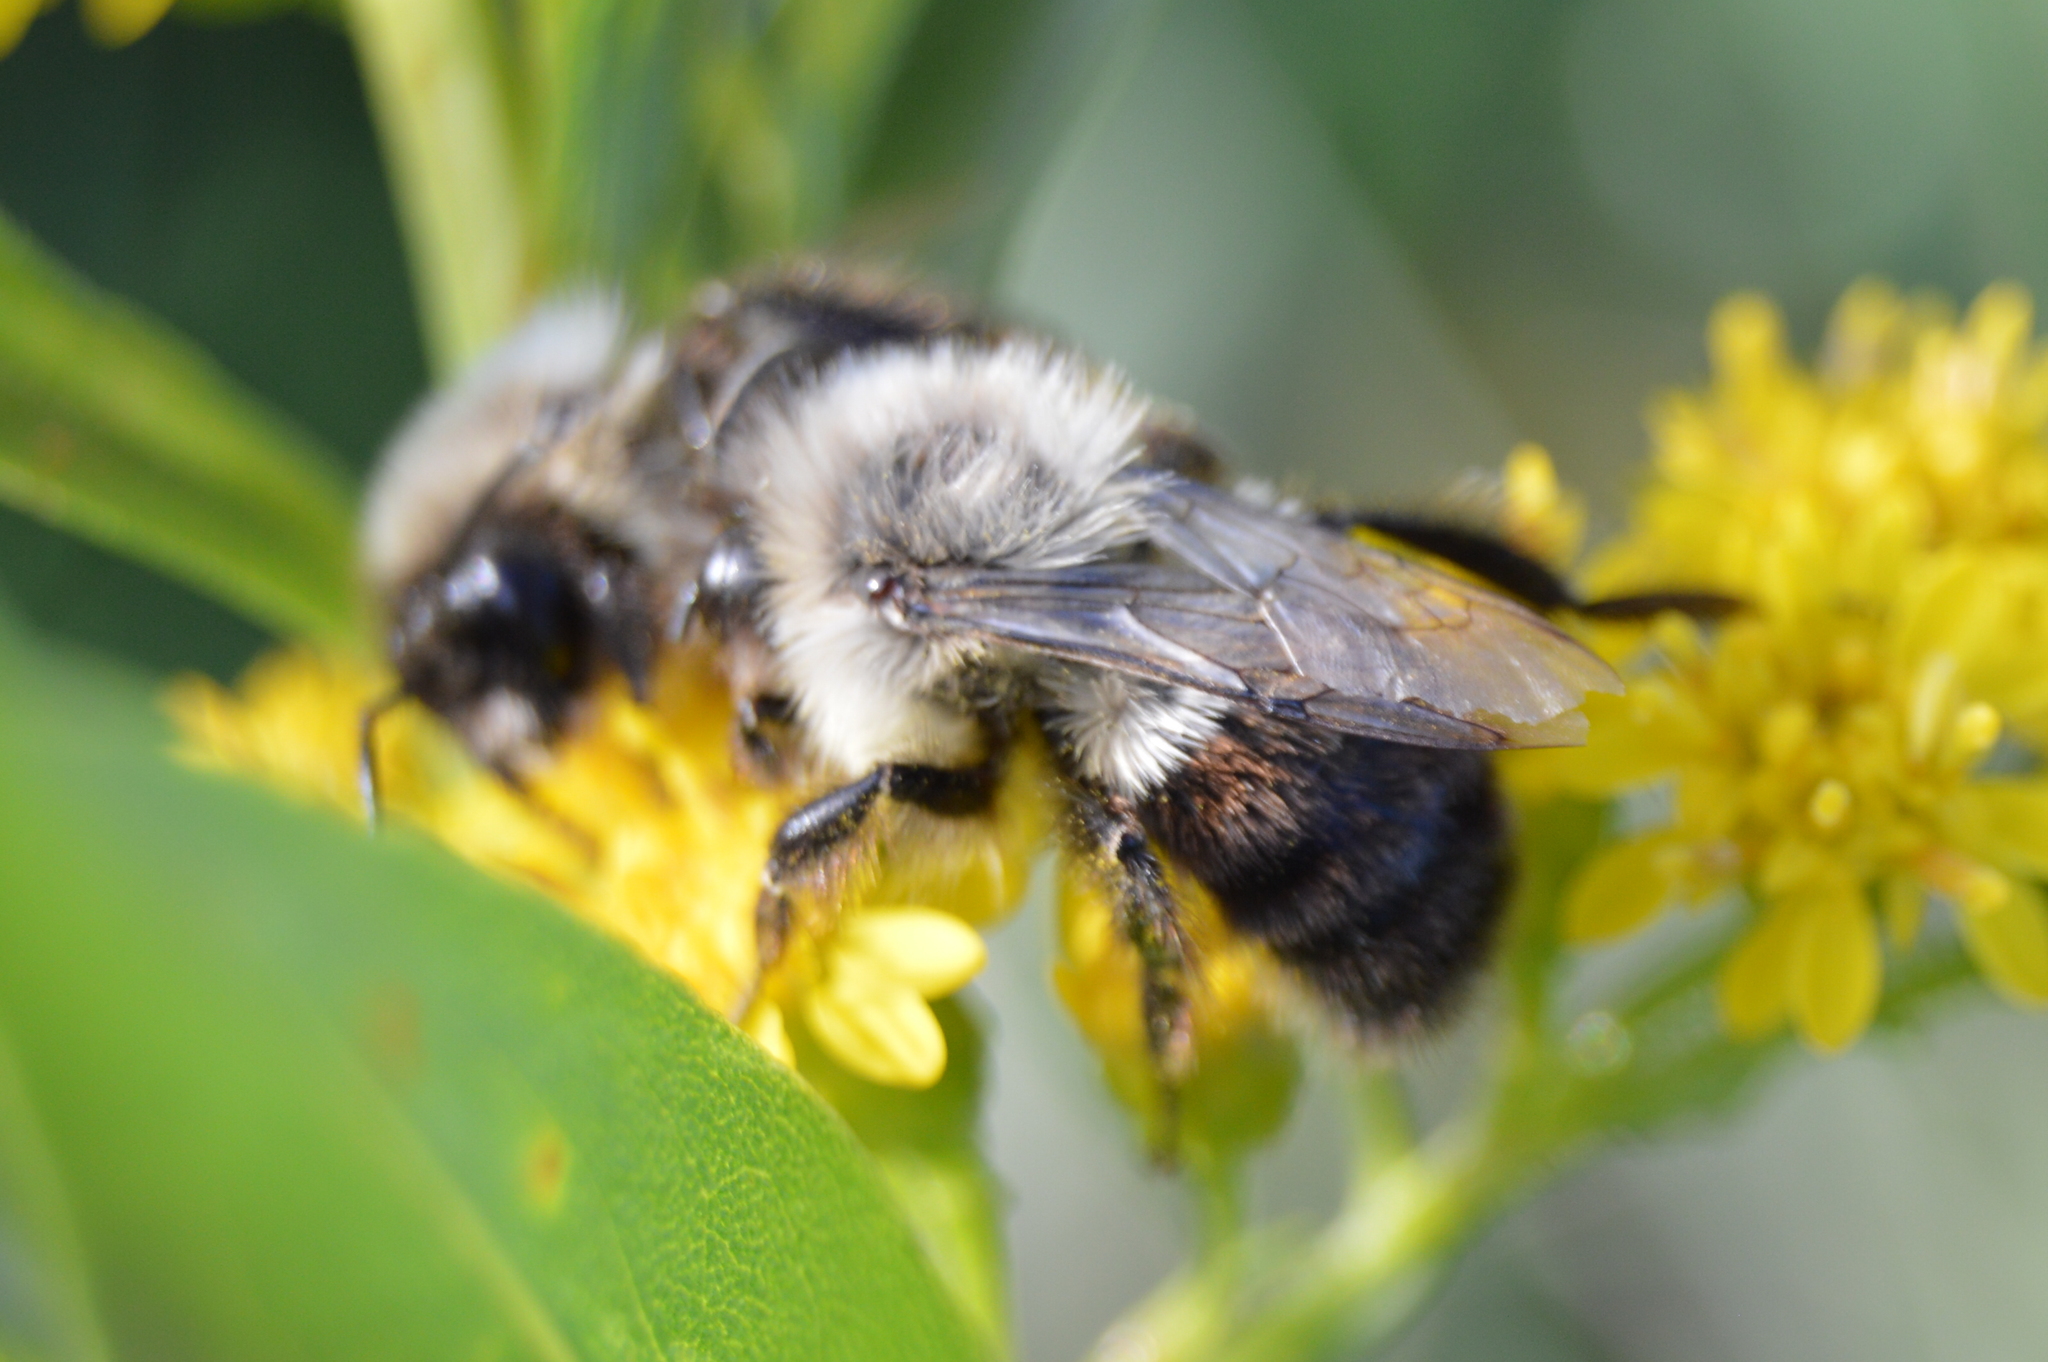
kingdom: Animalia
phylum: Arthropoda
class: Insecta
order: Hymenoptera
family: Apidae
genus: Bombus
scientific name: Bombus impatiens
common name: Common eastern bumble bee
